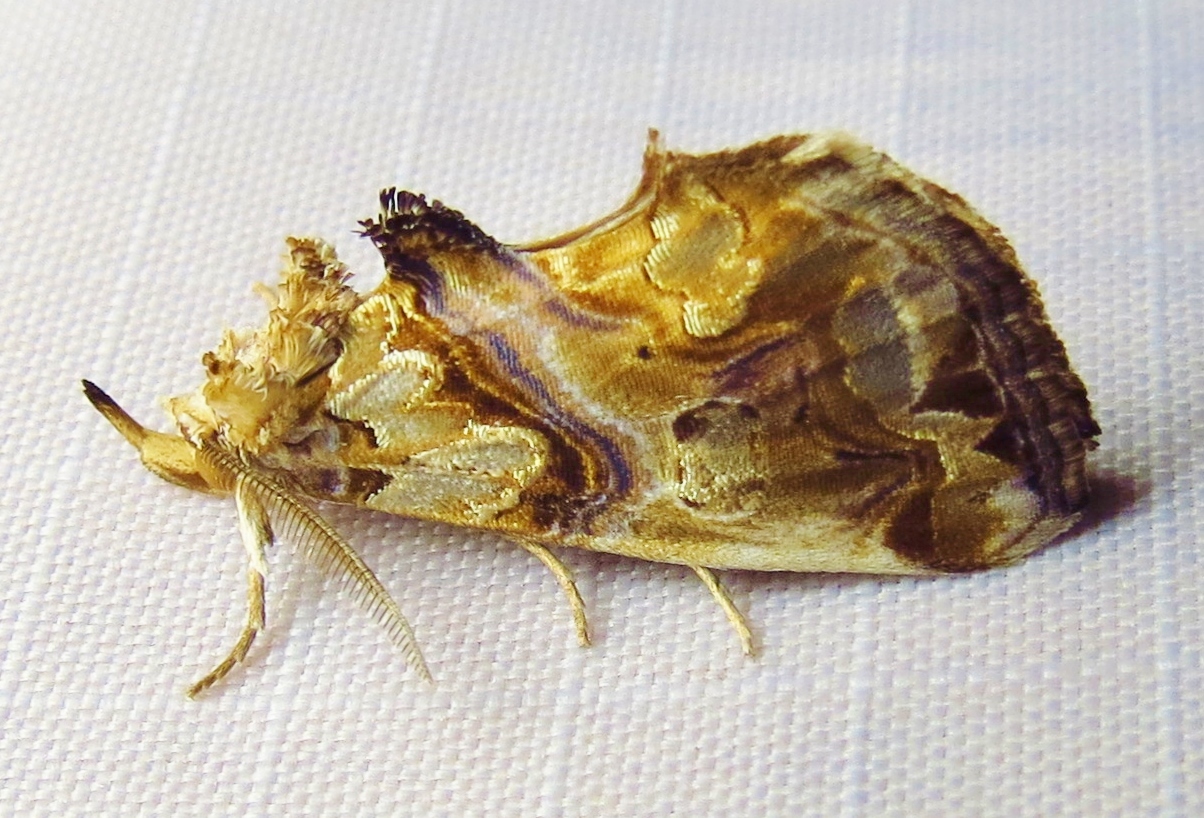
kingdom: Animalia
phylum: Arthropoda
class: Insecta
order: Lepidoptera
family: Erebidae
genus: Plusiodonta
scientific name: Plusiodonta compressipalpis
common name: Moonseed moth
